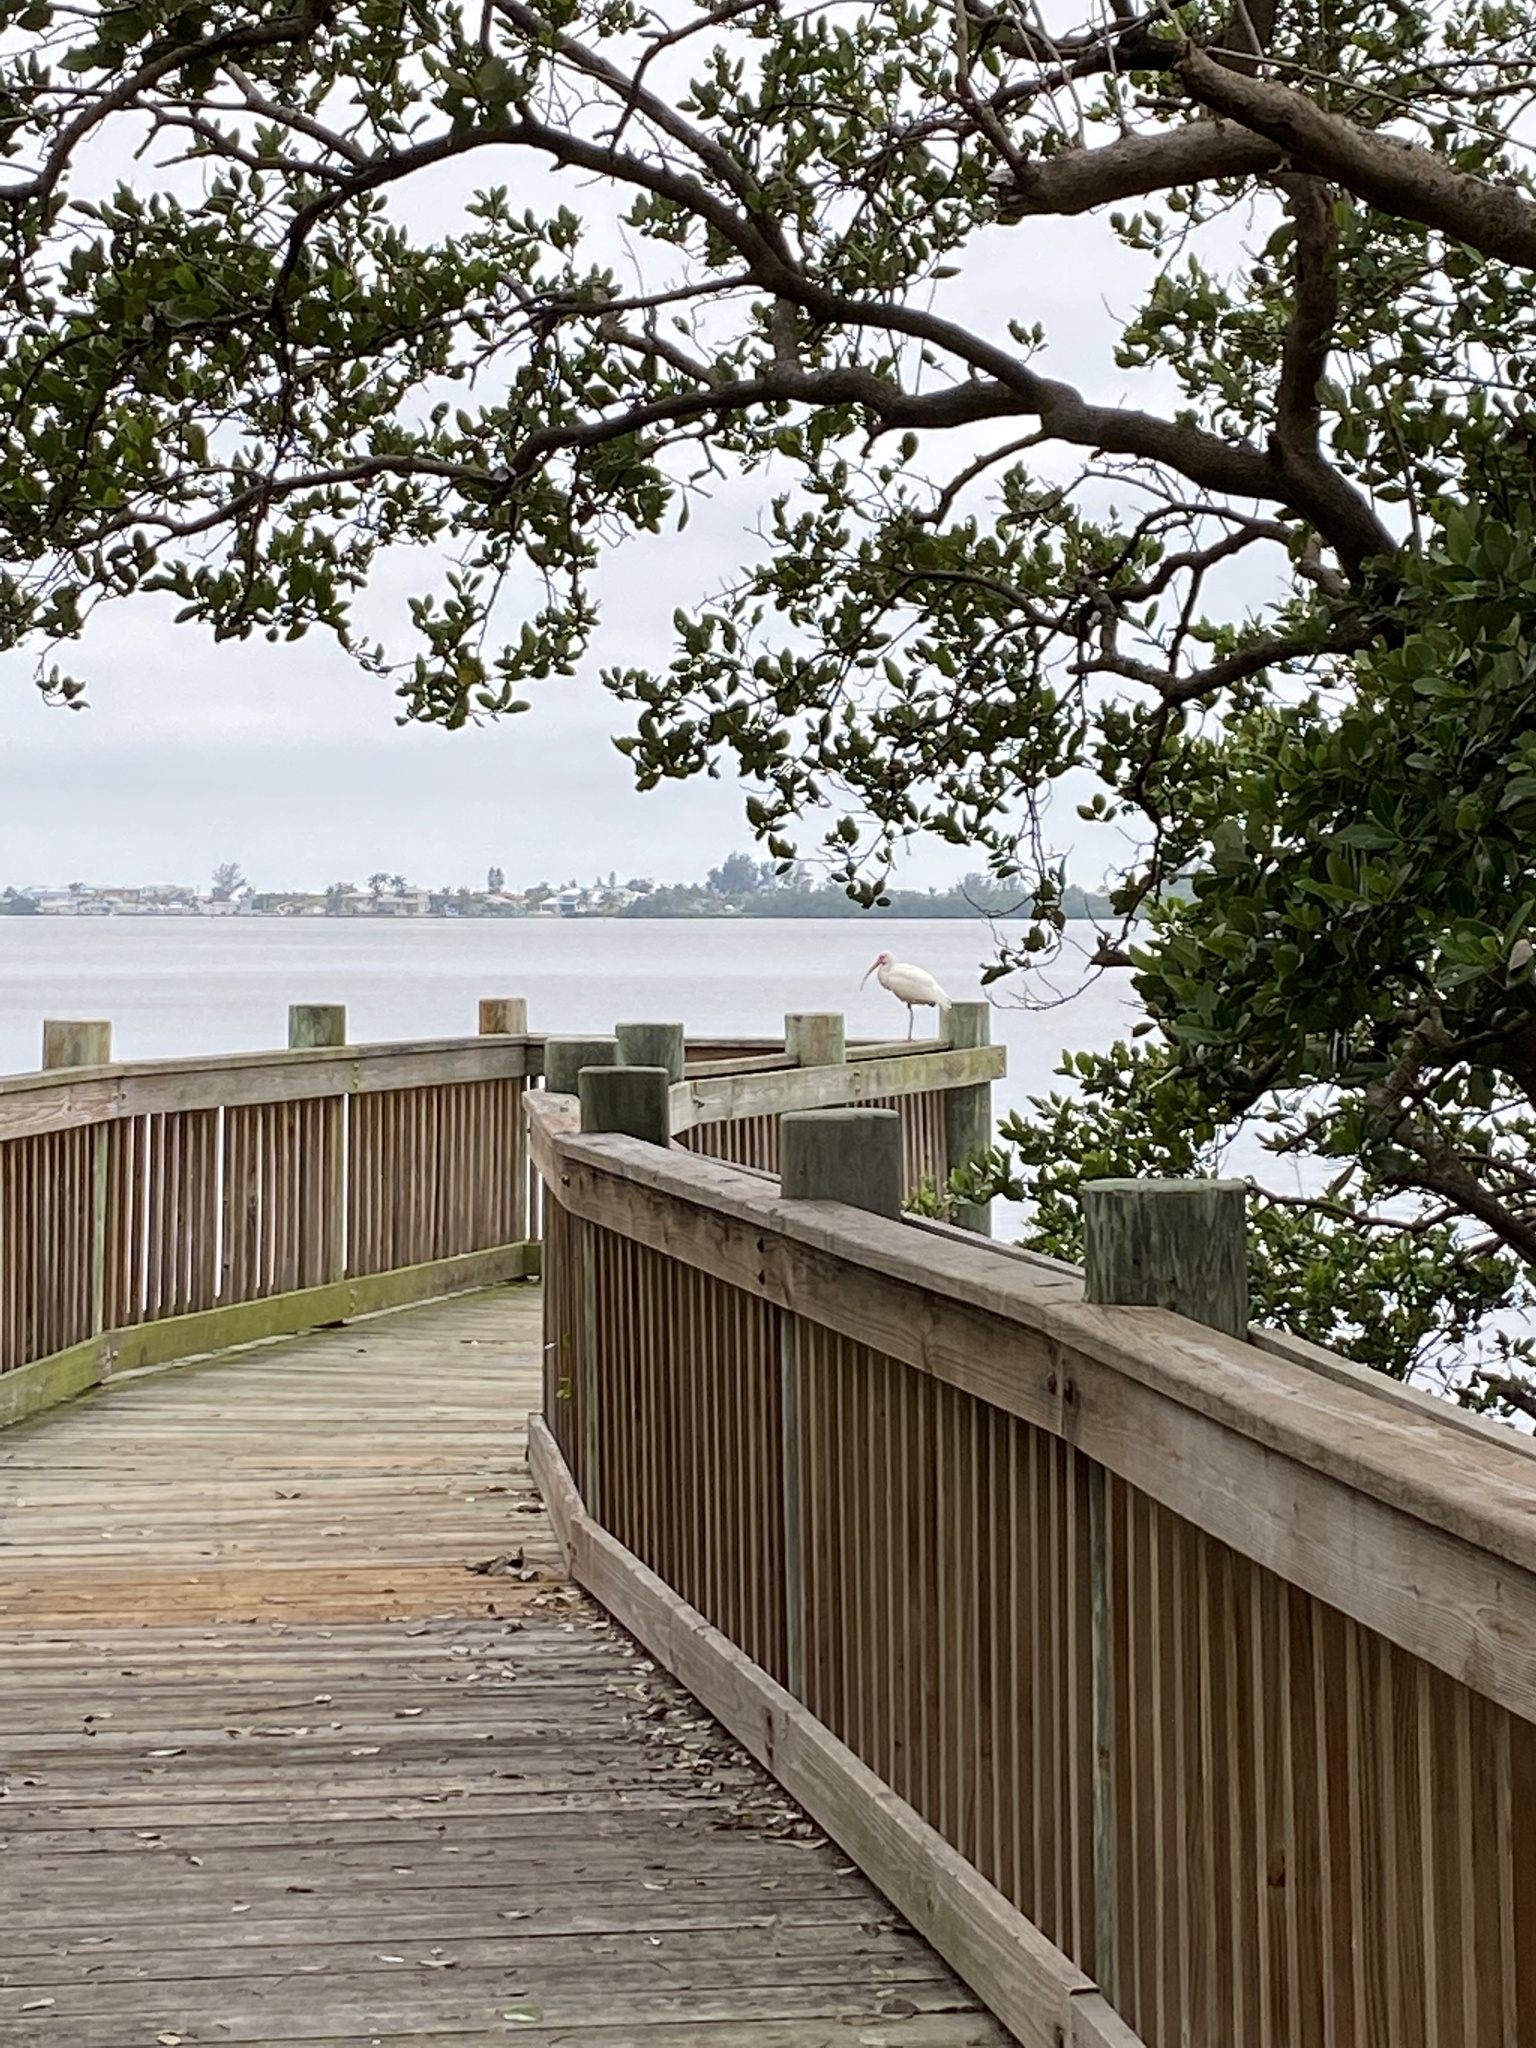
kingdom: Animalia
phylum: Chordata
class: Aves
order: Pelecaniformes
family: Threskiornithidae
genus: Eudocimus
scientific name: Eudocimus albus
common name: White ibis
